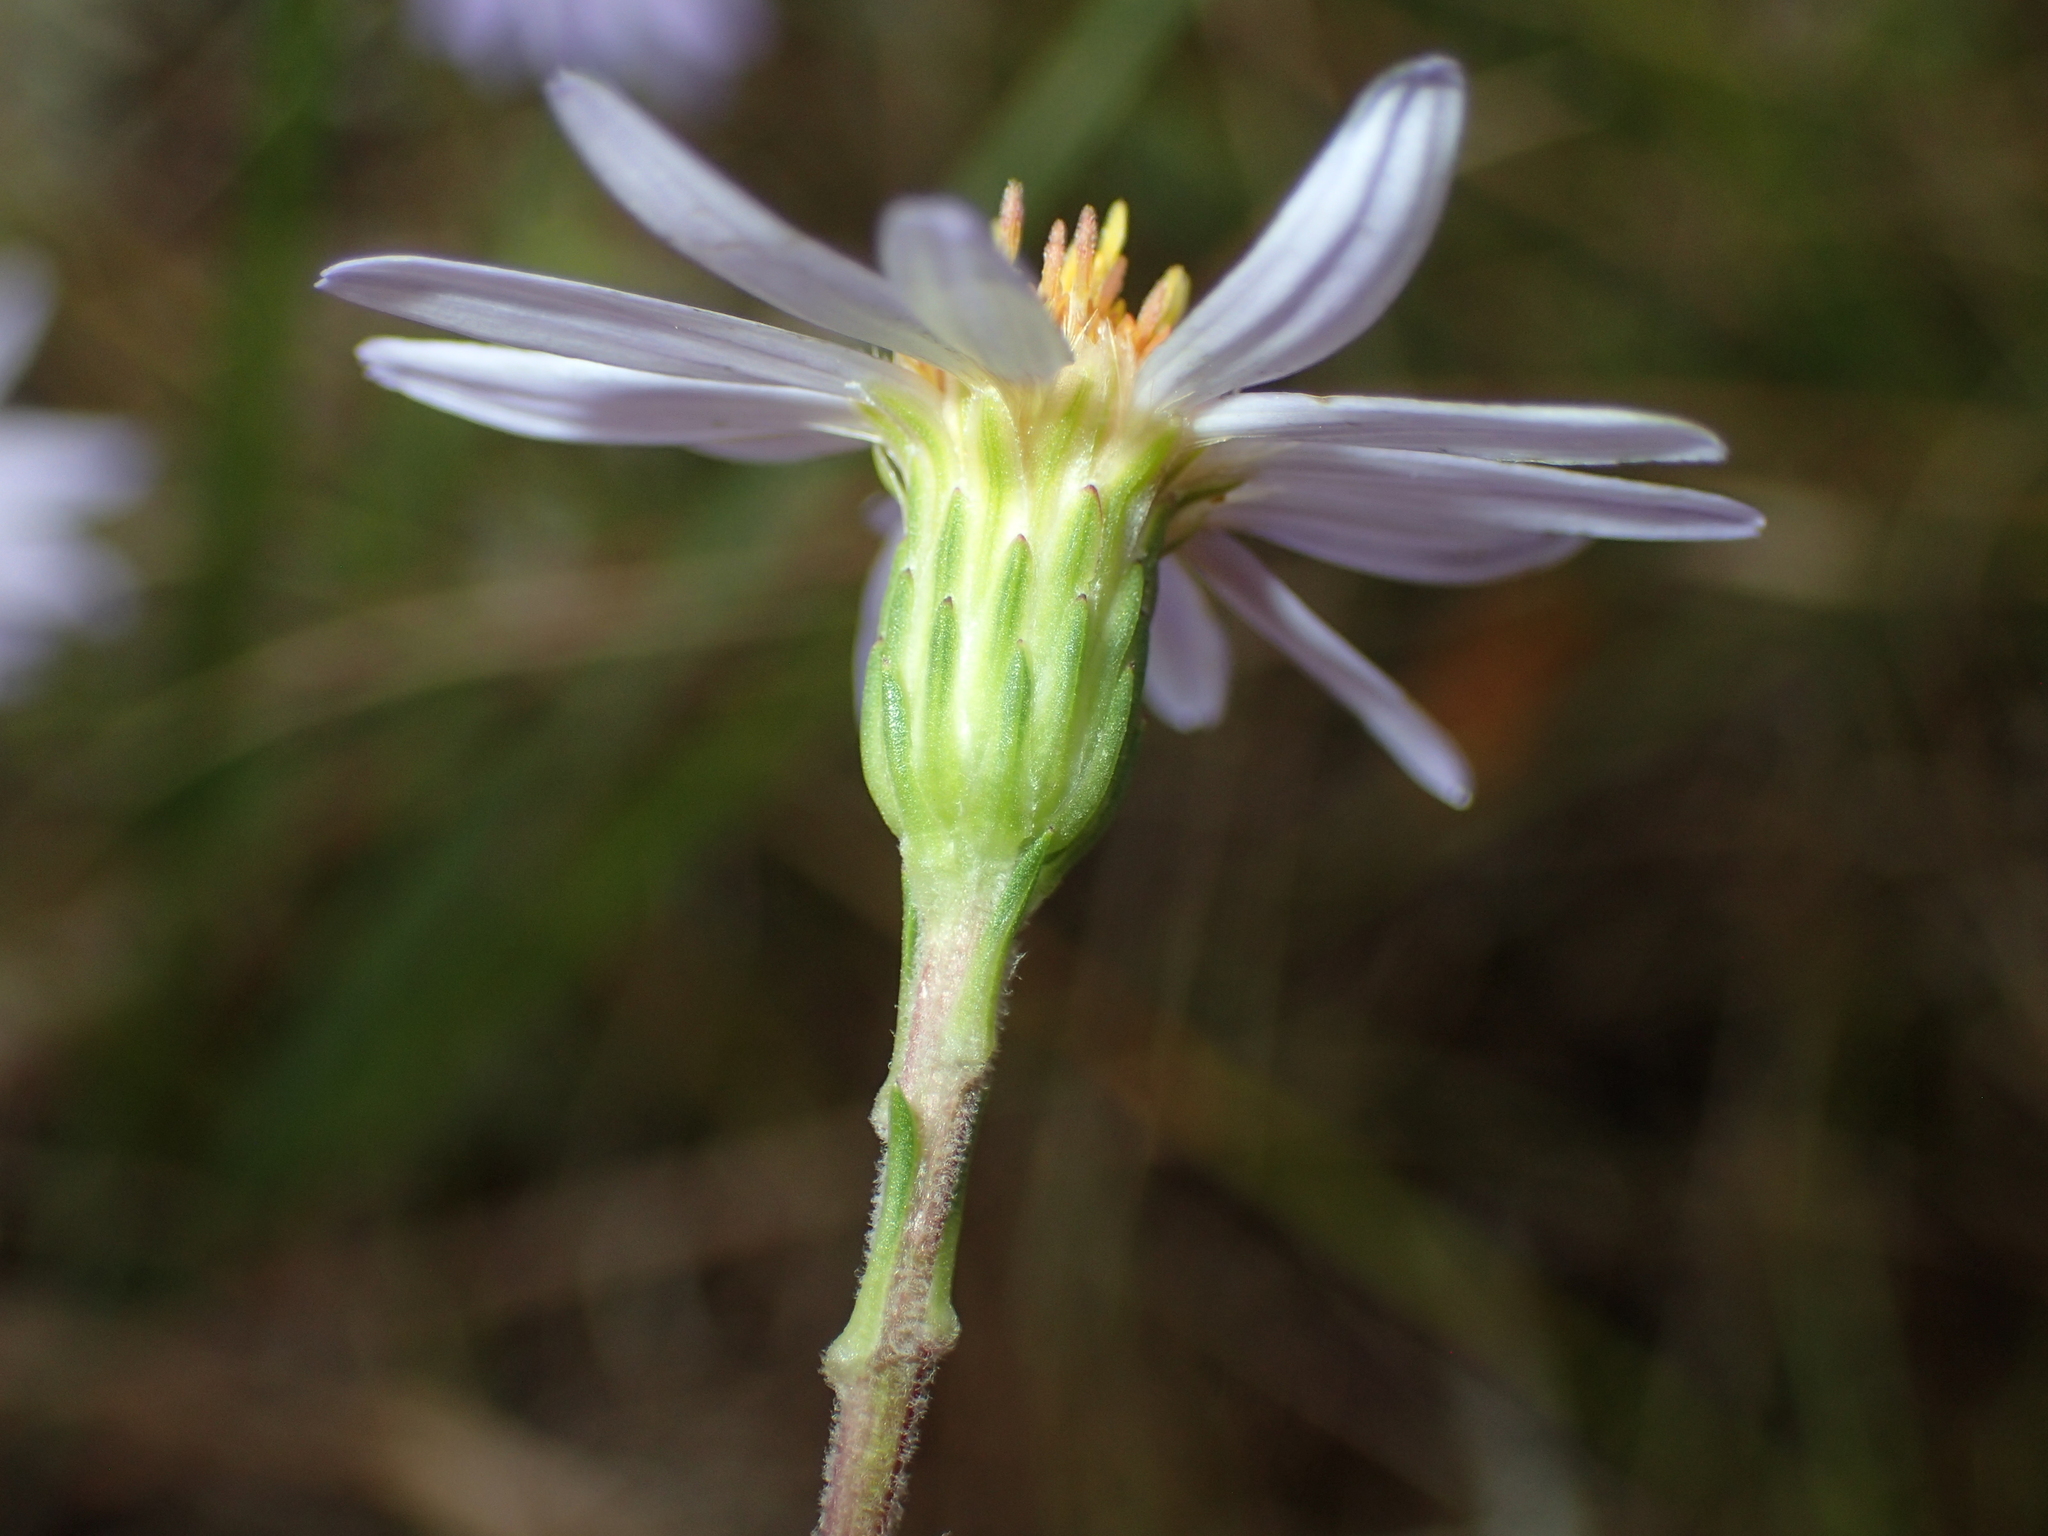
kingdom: Plantae
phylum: Tracheophyta
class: Magnoliopsida
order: Asterales
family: Asteraceae
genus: Ionactis
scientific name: Ionactis linariifolia
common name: Flax-leaf aster
